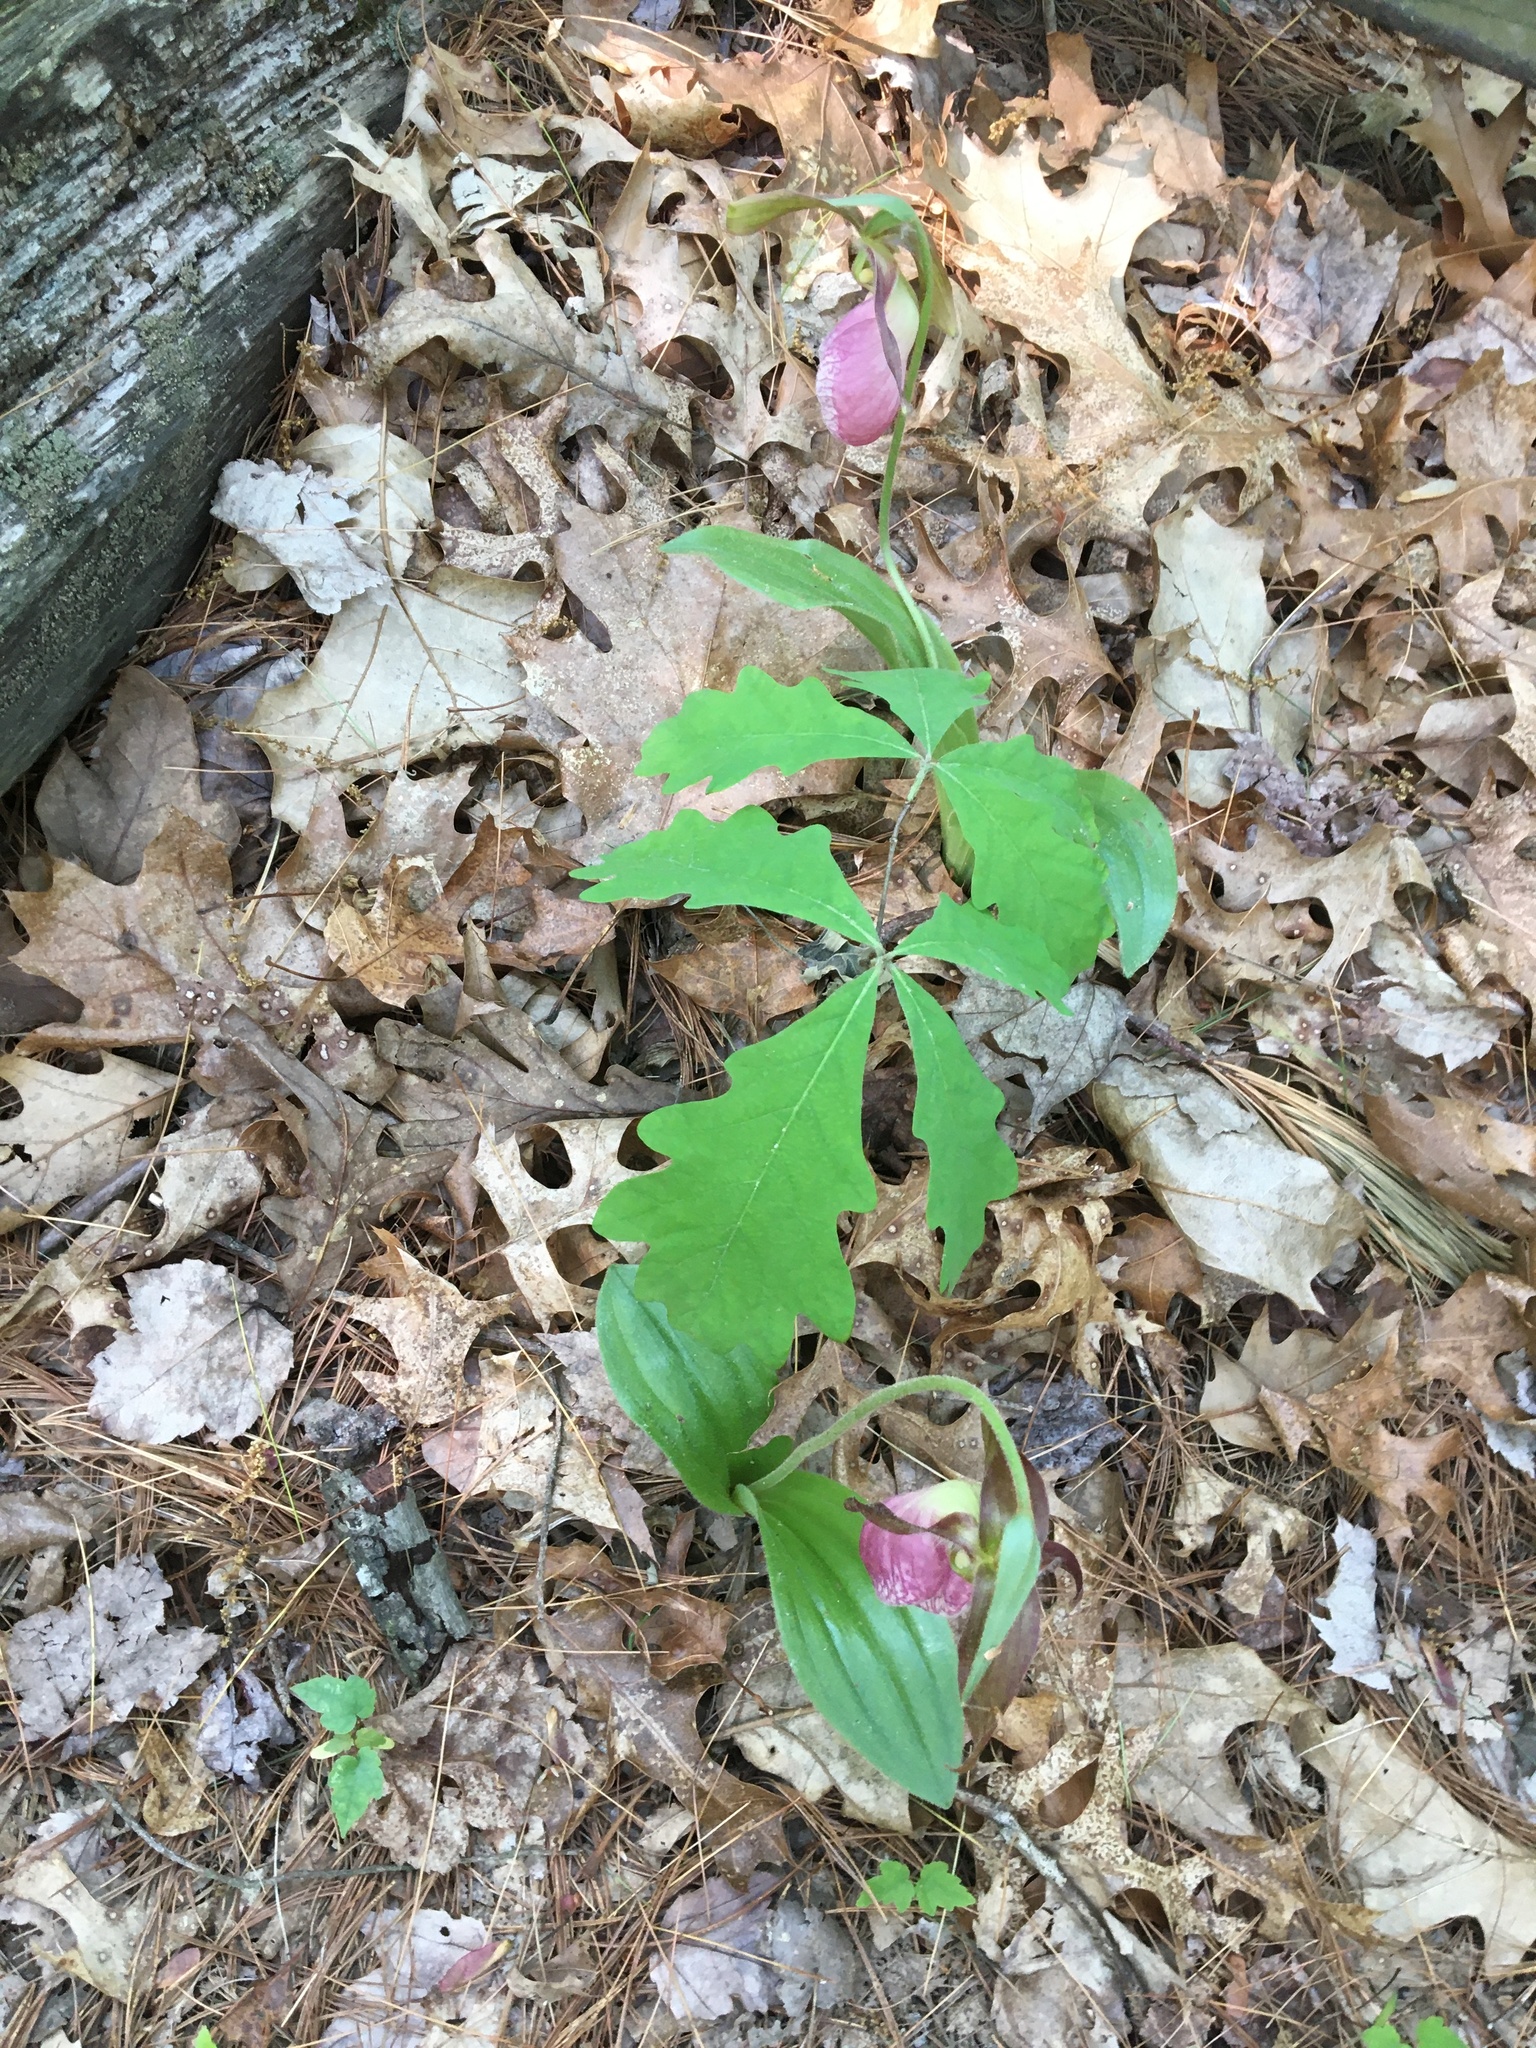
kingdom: Plantae
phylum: Tracheophyta
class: Liliopsida
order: Asparagales
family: Orchidaceae
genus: Cypripedium
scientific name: Cypripedium acaule
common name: Pink lady's-slipper
